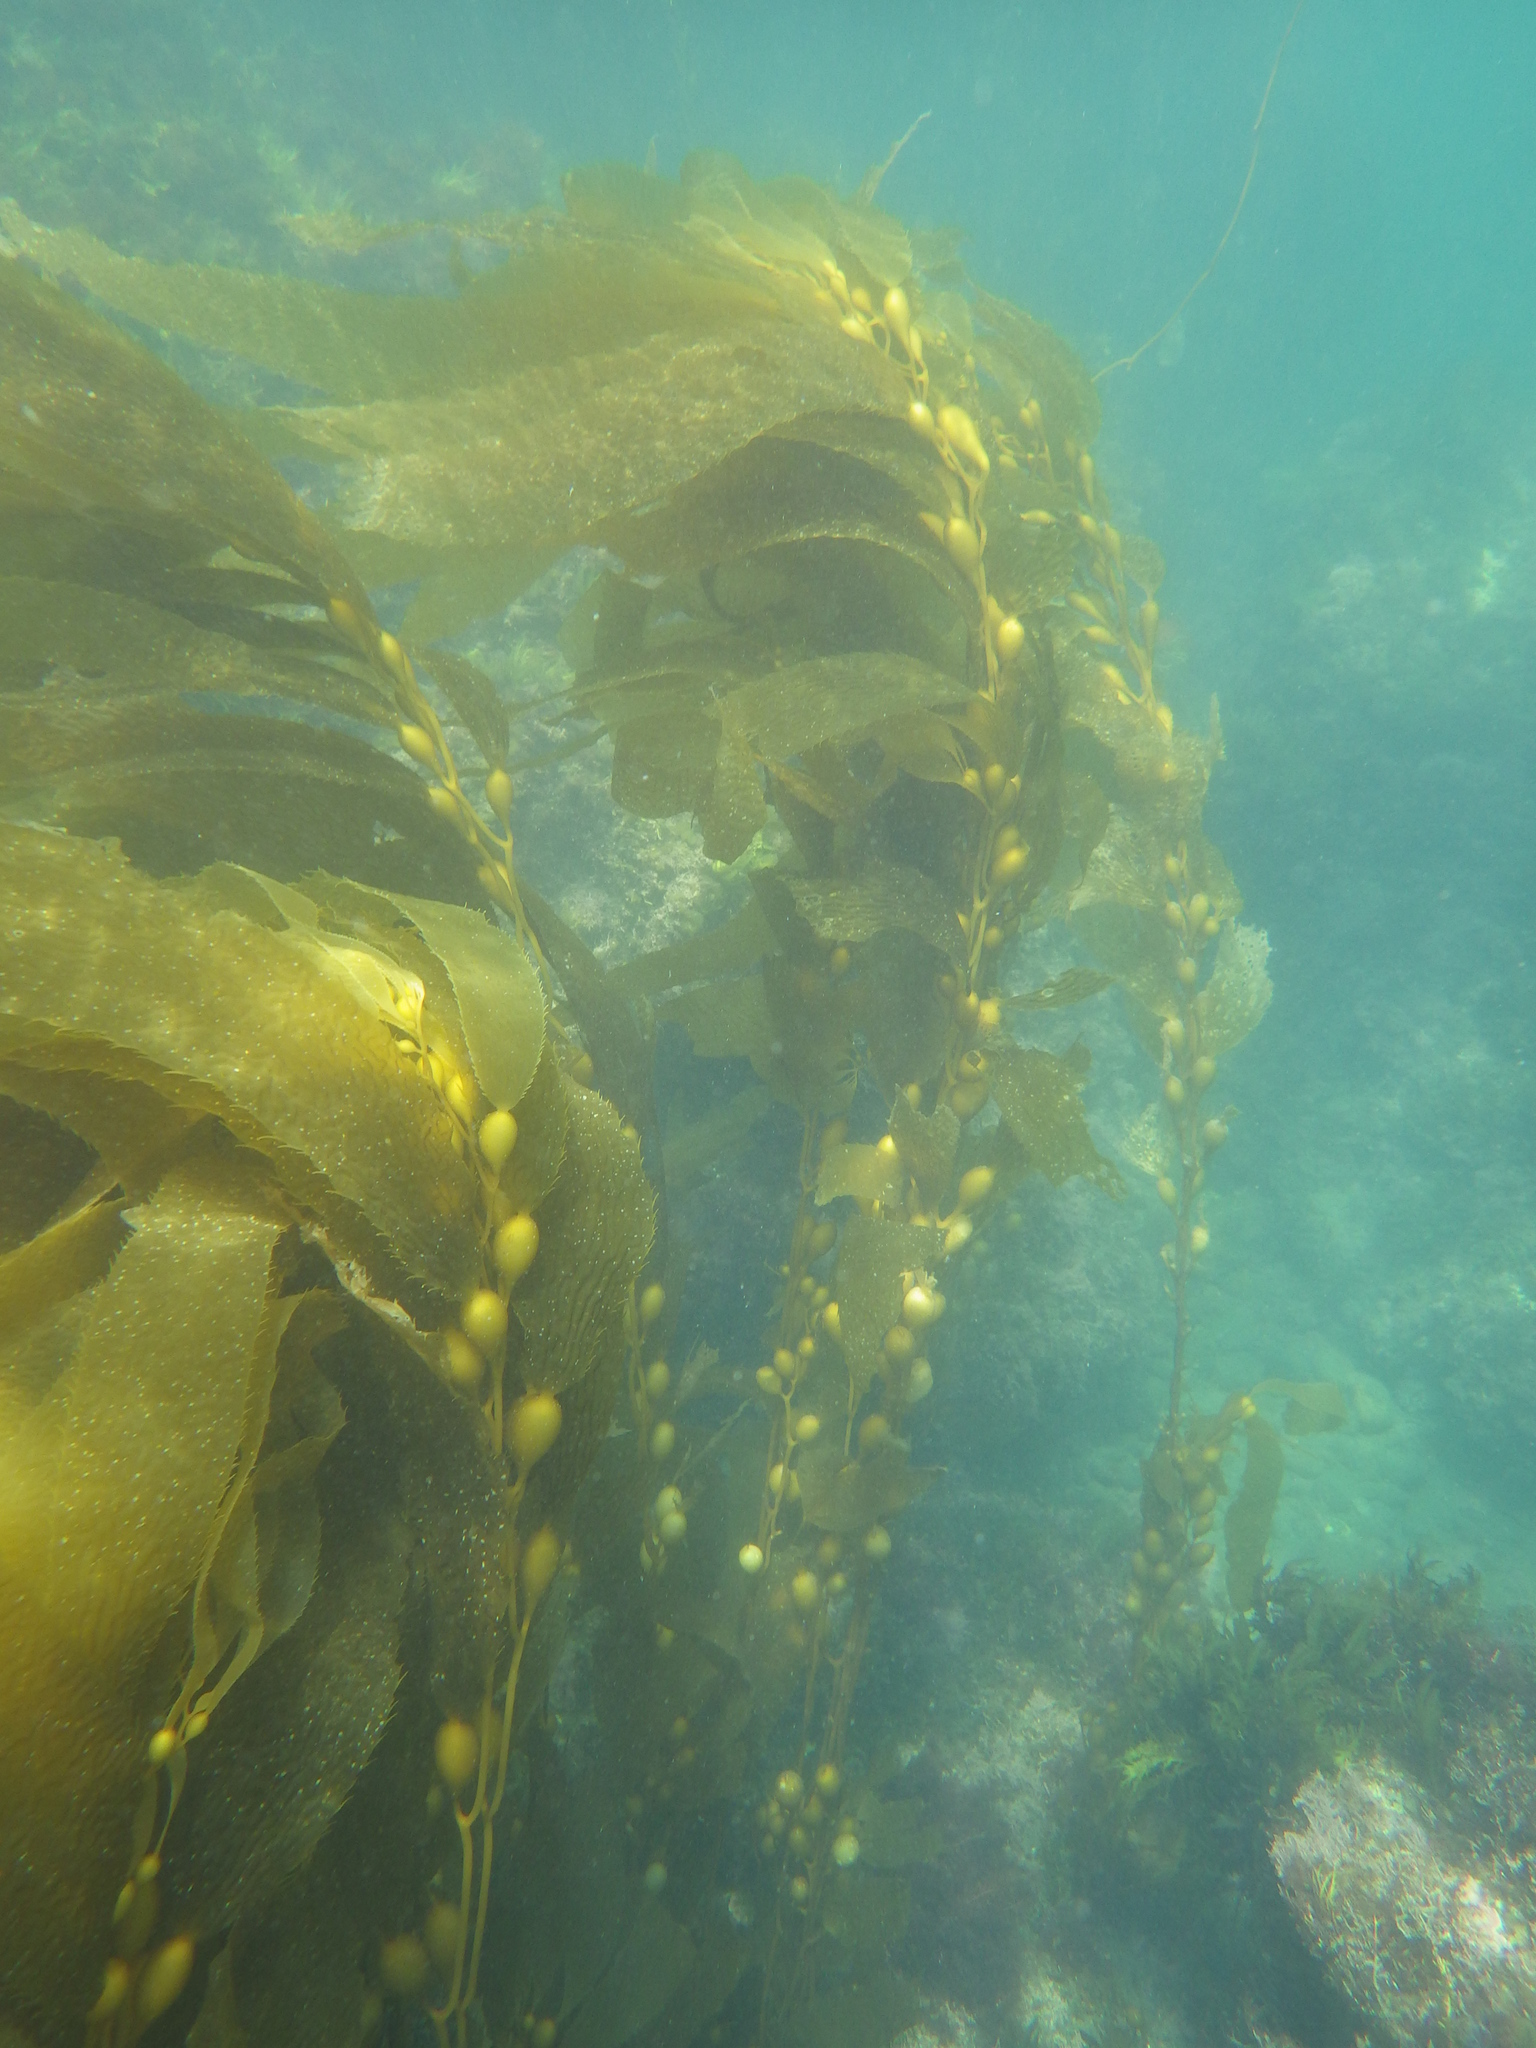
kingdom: Chromista
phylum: Ochrophyta
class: Phaeophyceae
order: Laminariales
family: Laminariaceae
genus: Macrocystis
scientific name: Macrocystis pyrifera
